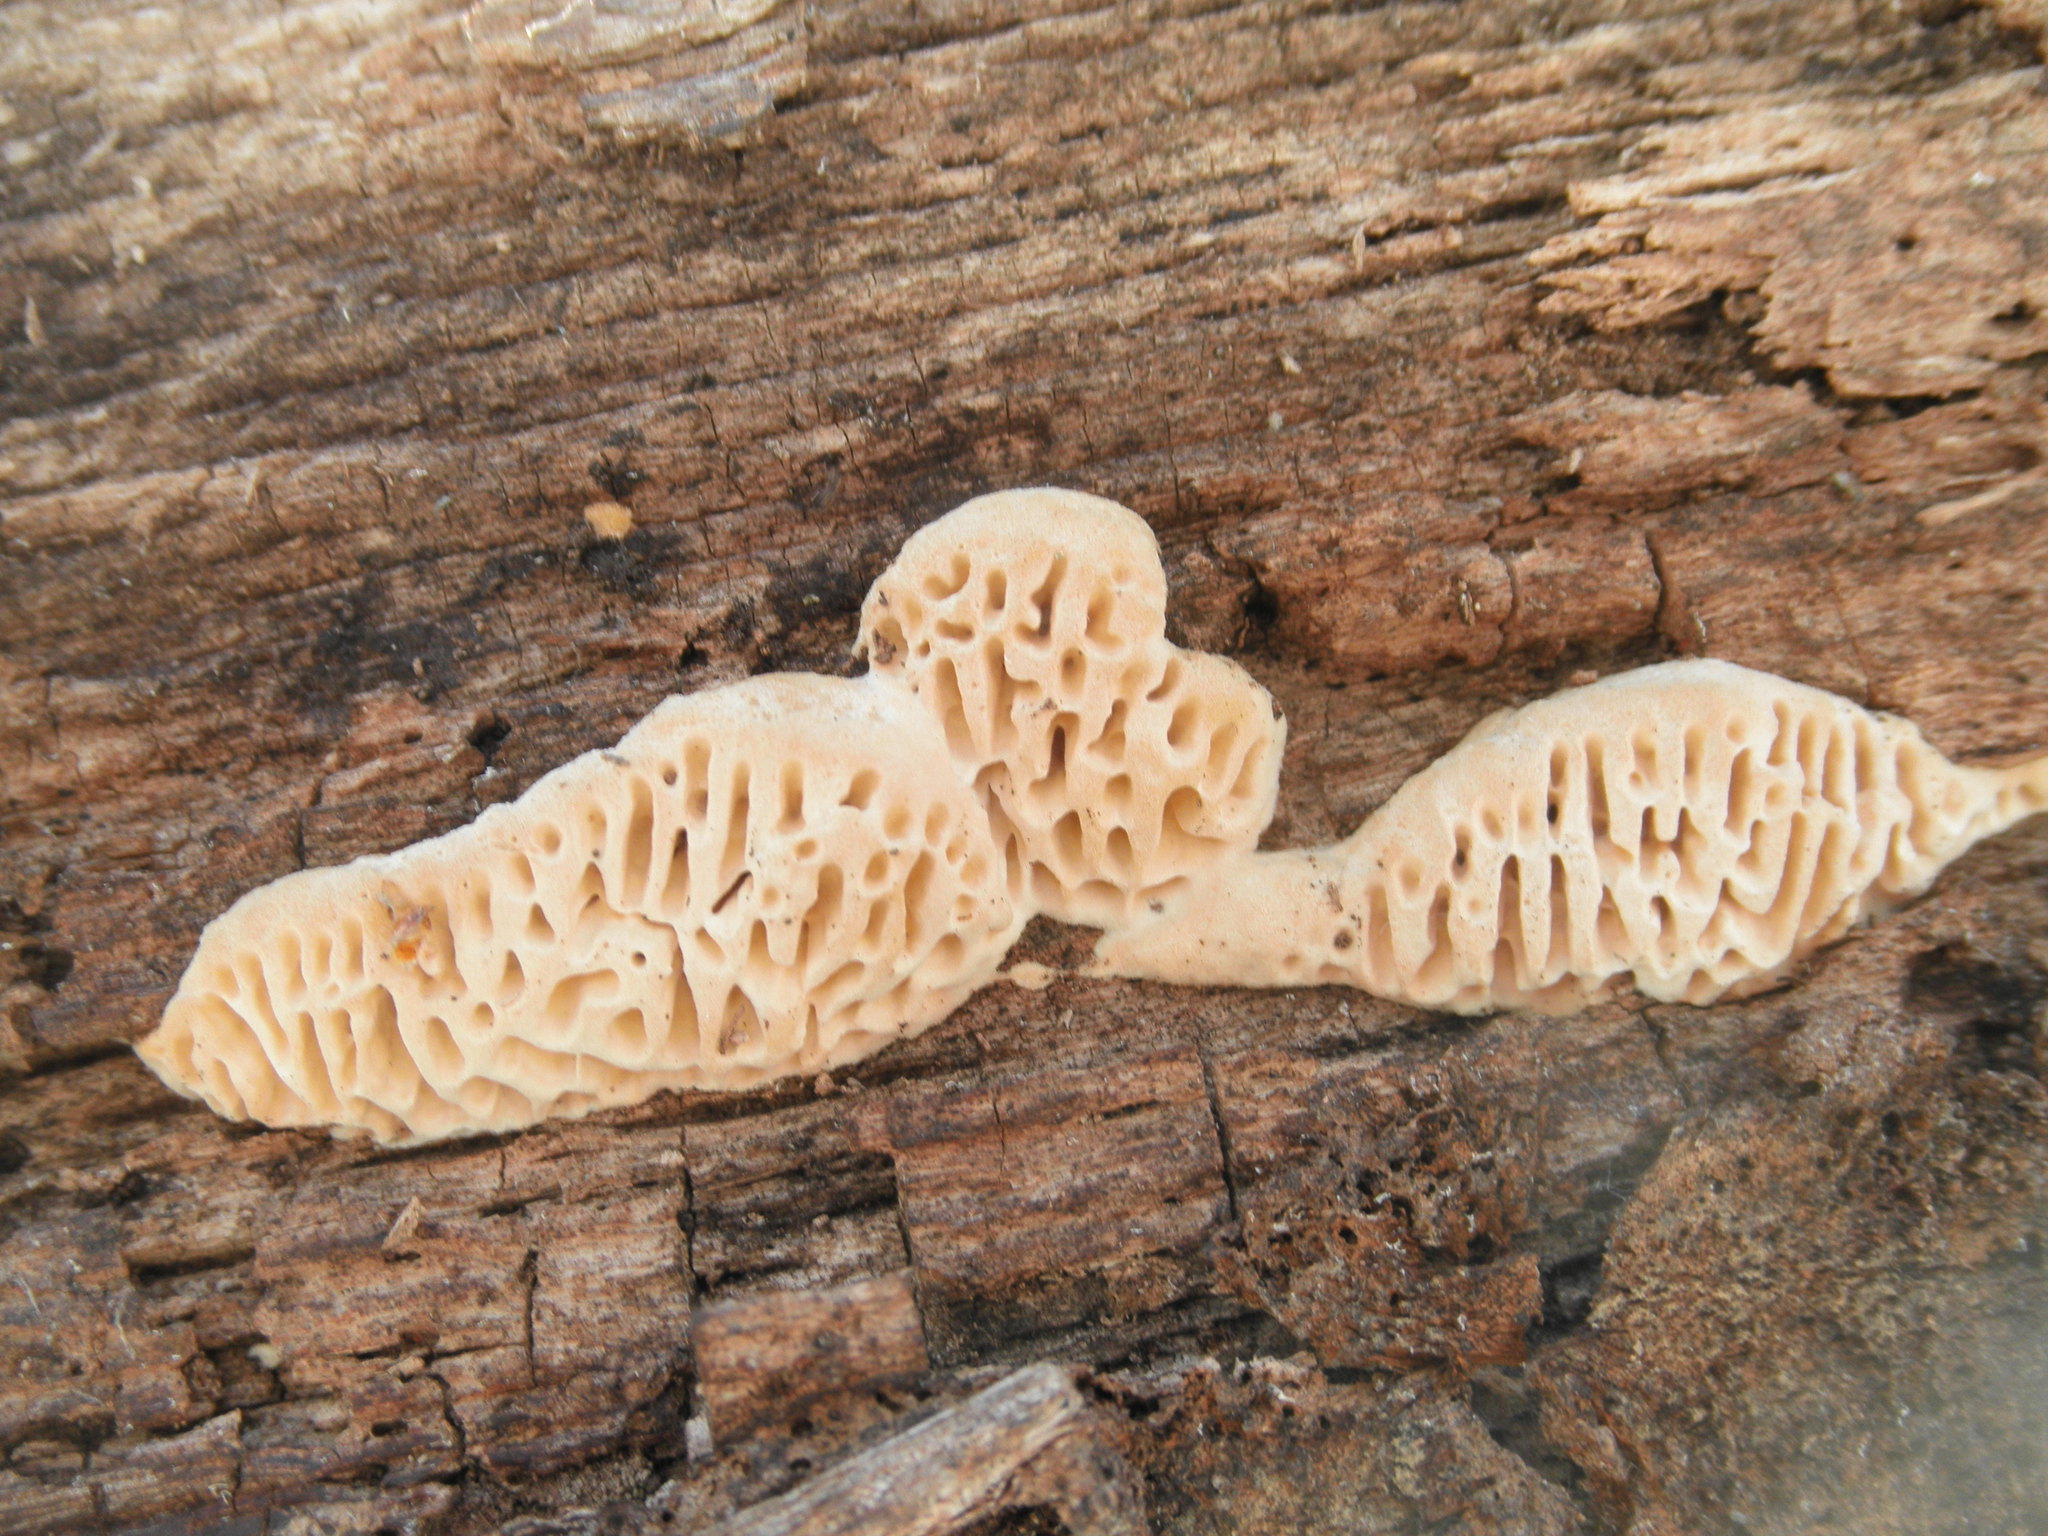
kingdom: Fungi
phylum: Basidiomycota
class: Agaricomycetes
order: Polyporales
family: Fomitopsidaceae
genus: Fomitopsis
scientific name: Fomitopsis
